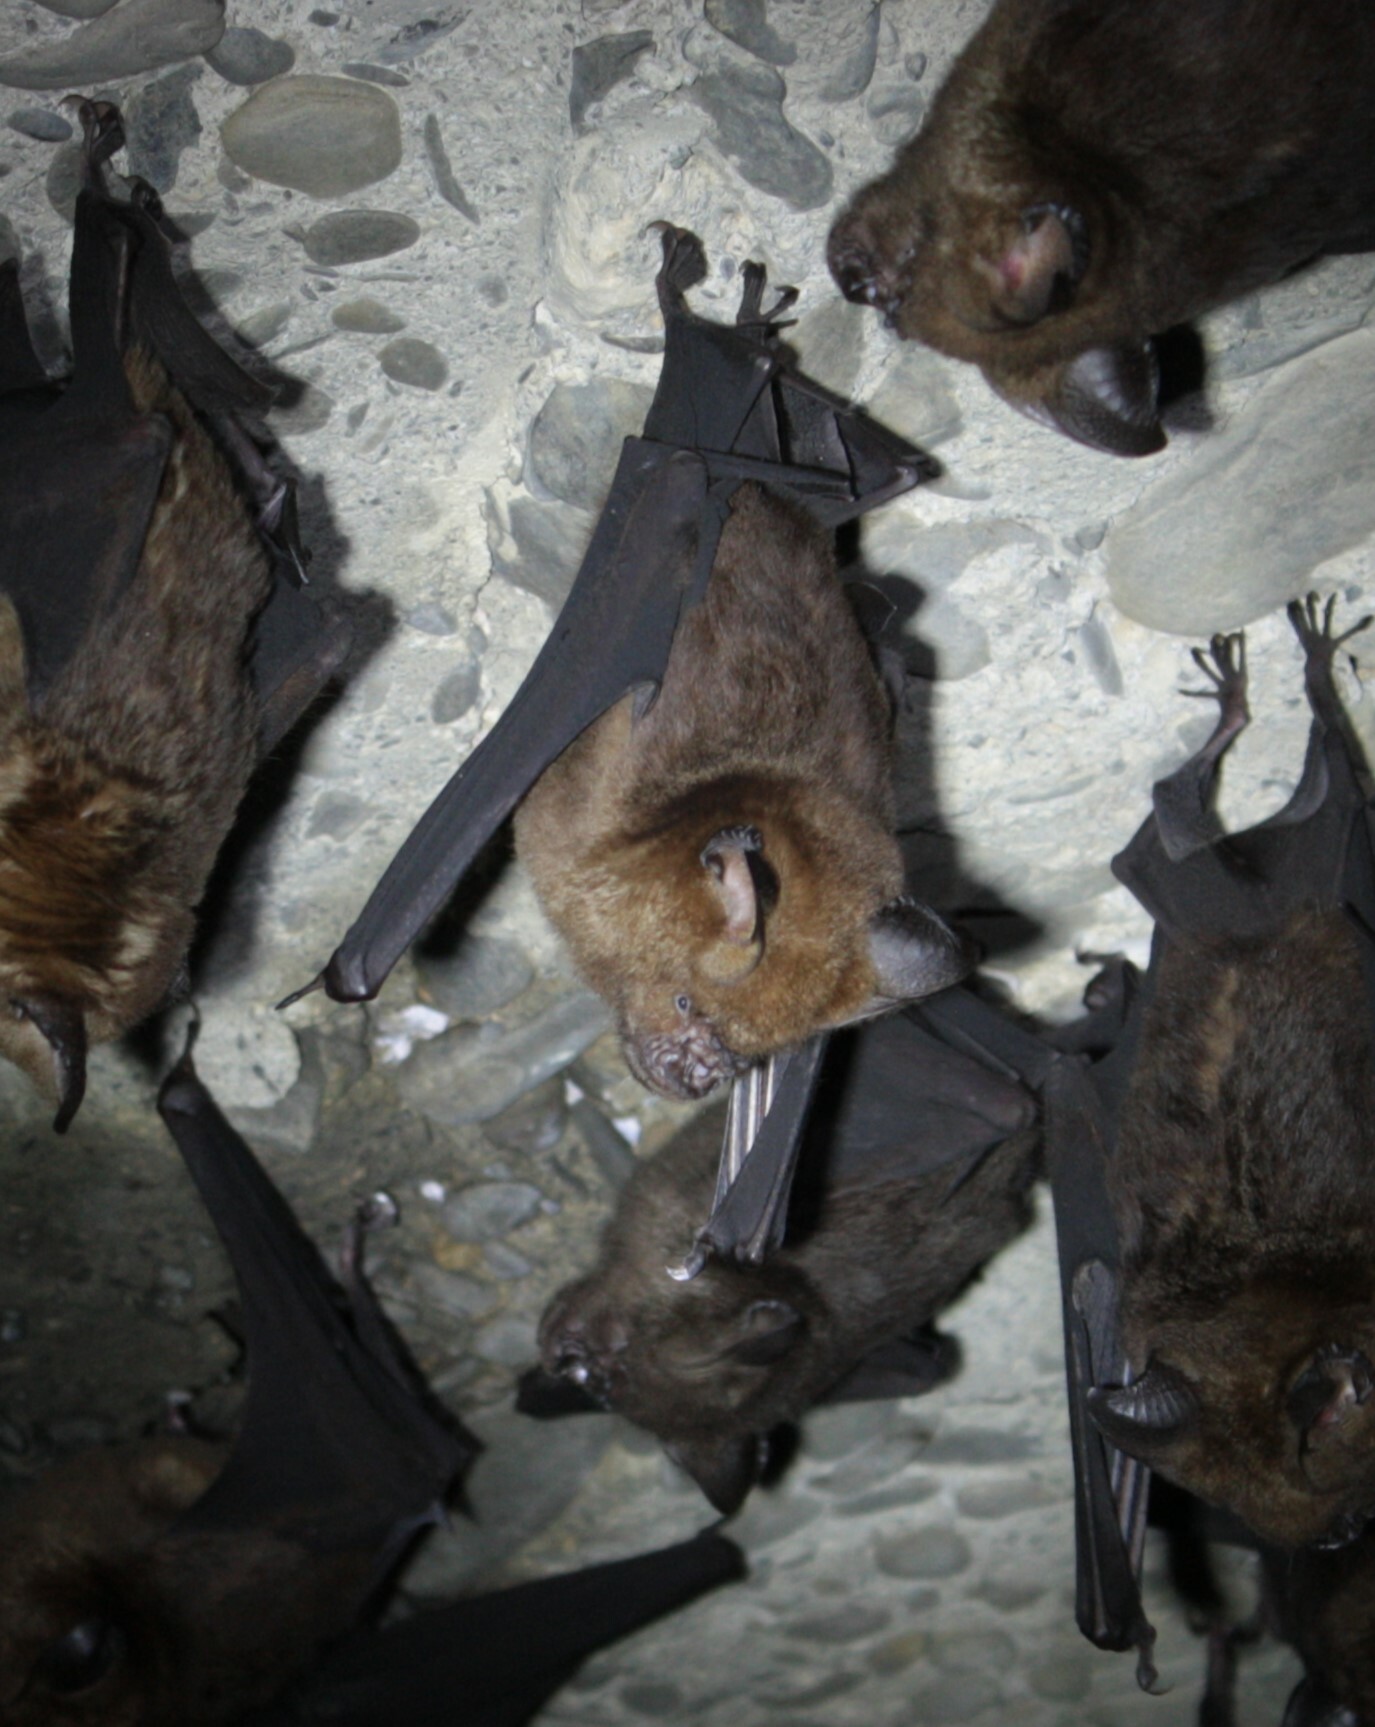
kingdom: Animalia
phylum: Chordata
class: Mammalia
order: Chiroptera
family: Hipposideridae
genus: Hipposideros
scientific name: Hipposideros armiger
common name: Great leaf-nosed bat
